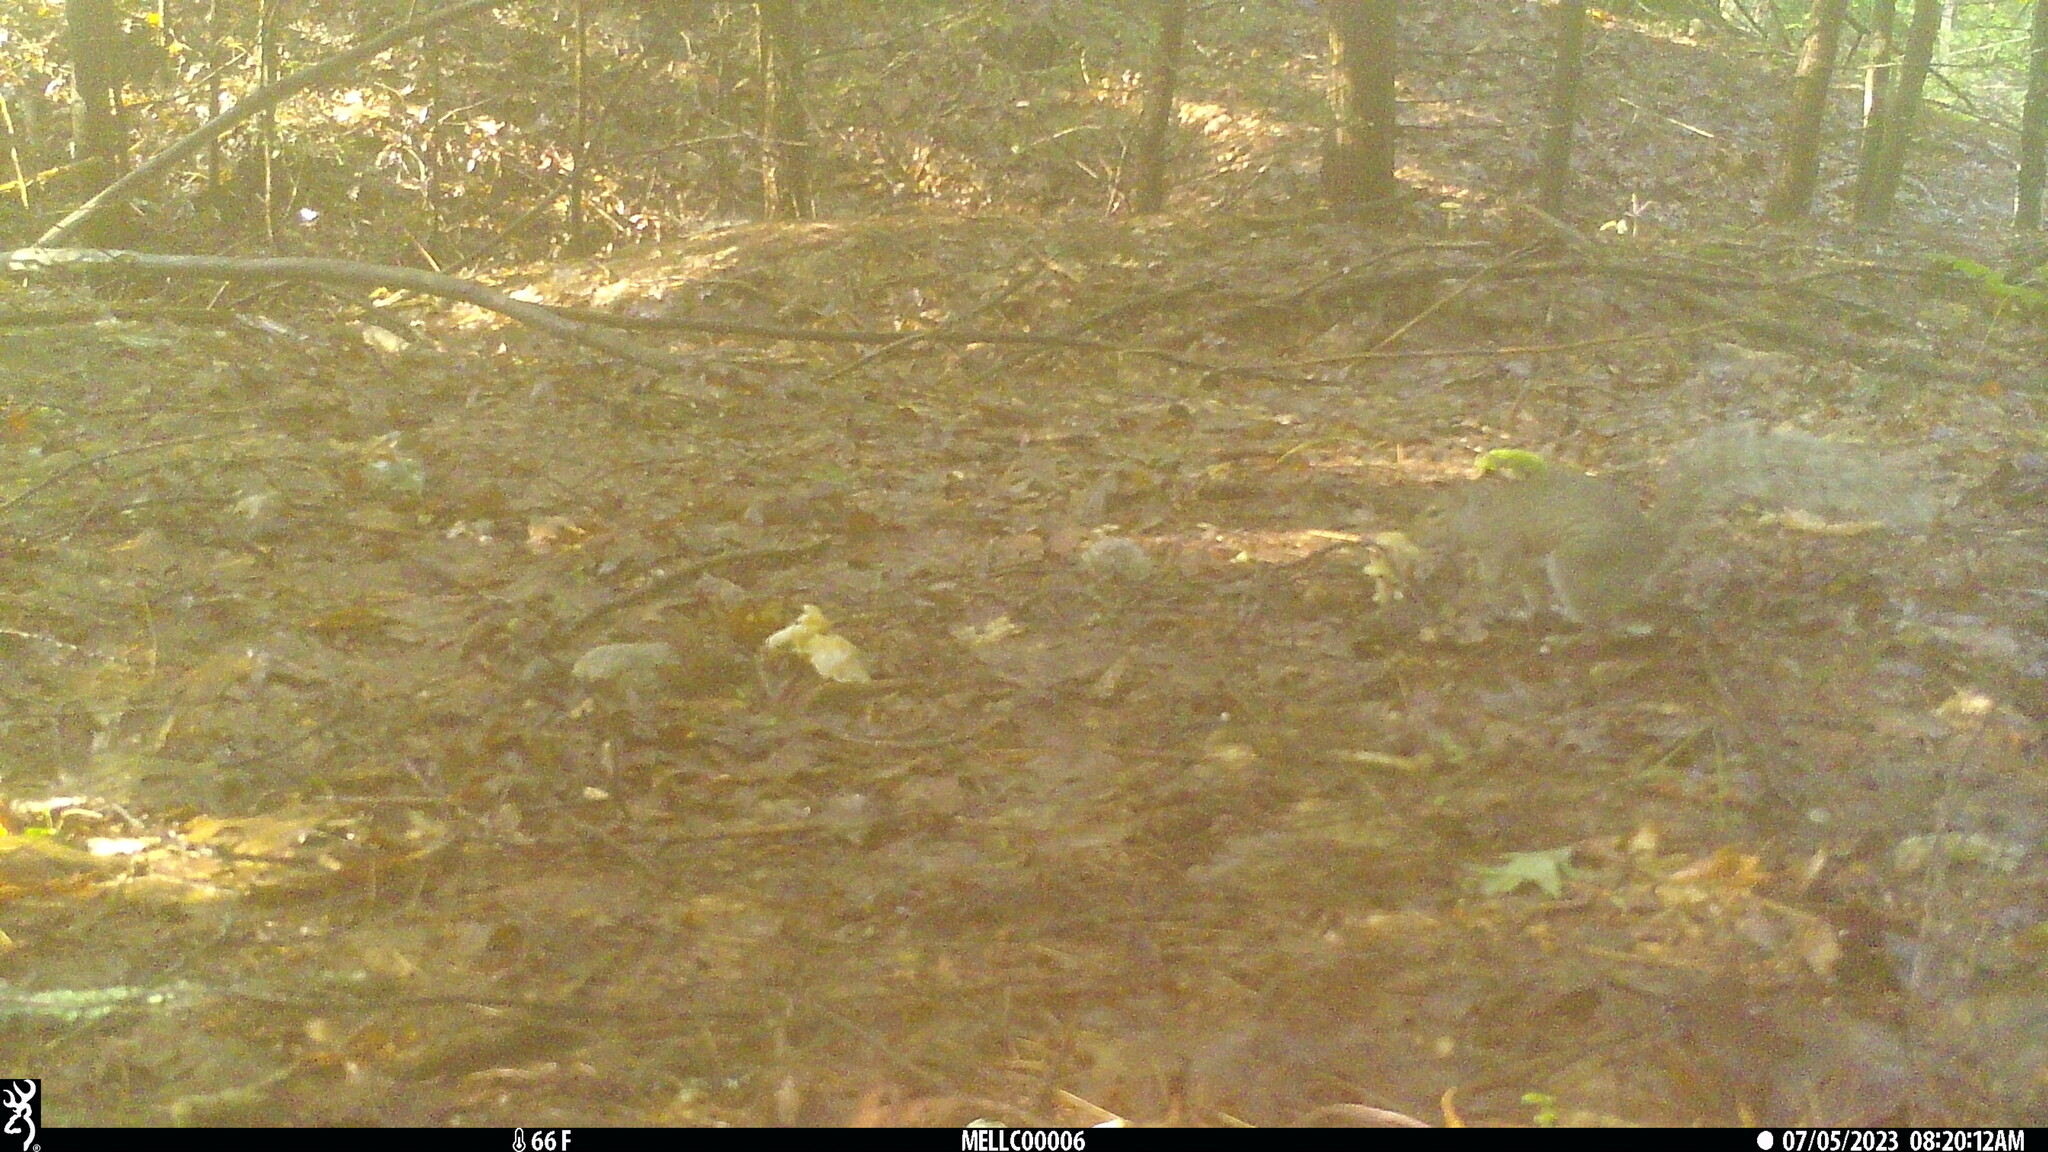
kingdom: Animalia
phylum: Chordata
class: Mammalia
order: Rodentia
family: Sciuridae
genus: Sciurus
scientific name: Sciurus carolinensis
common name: Eastern gray squirrel
